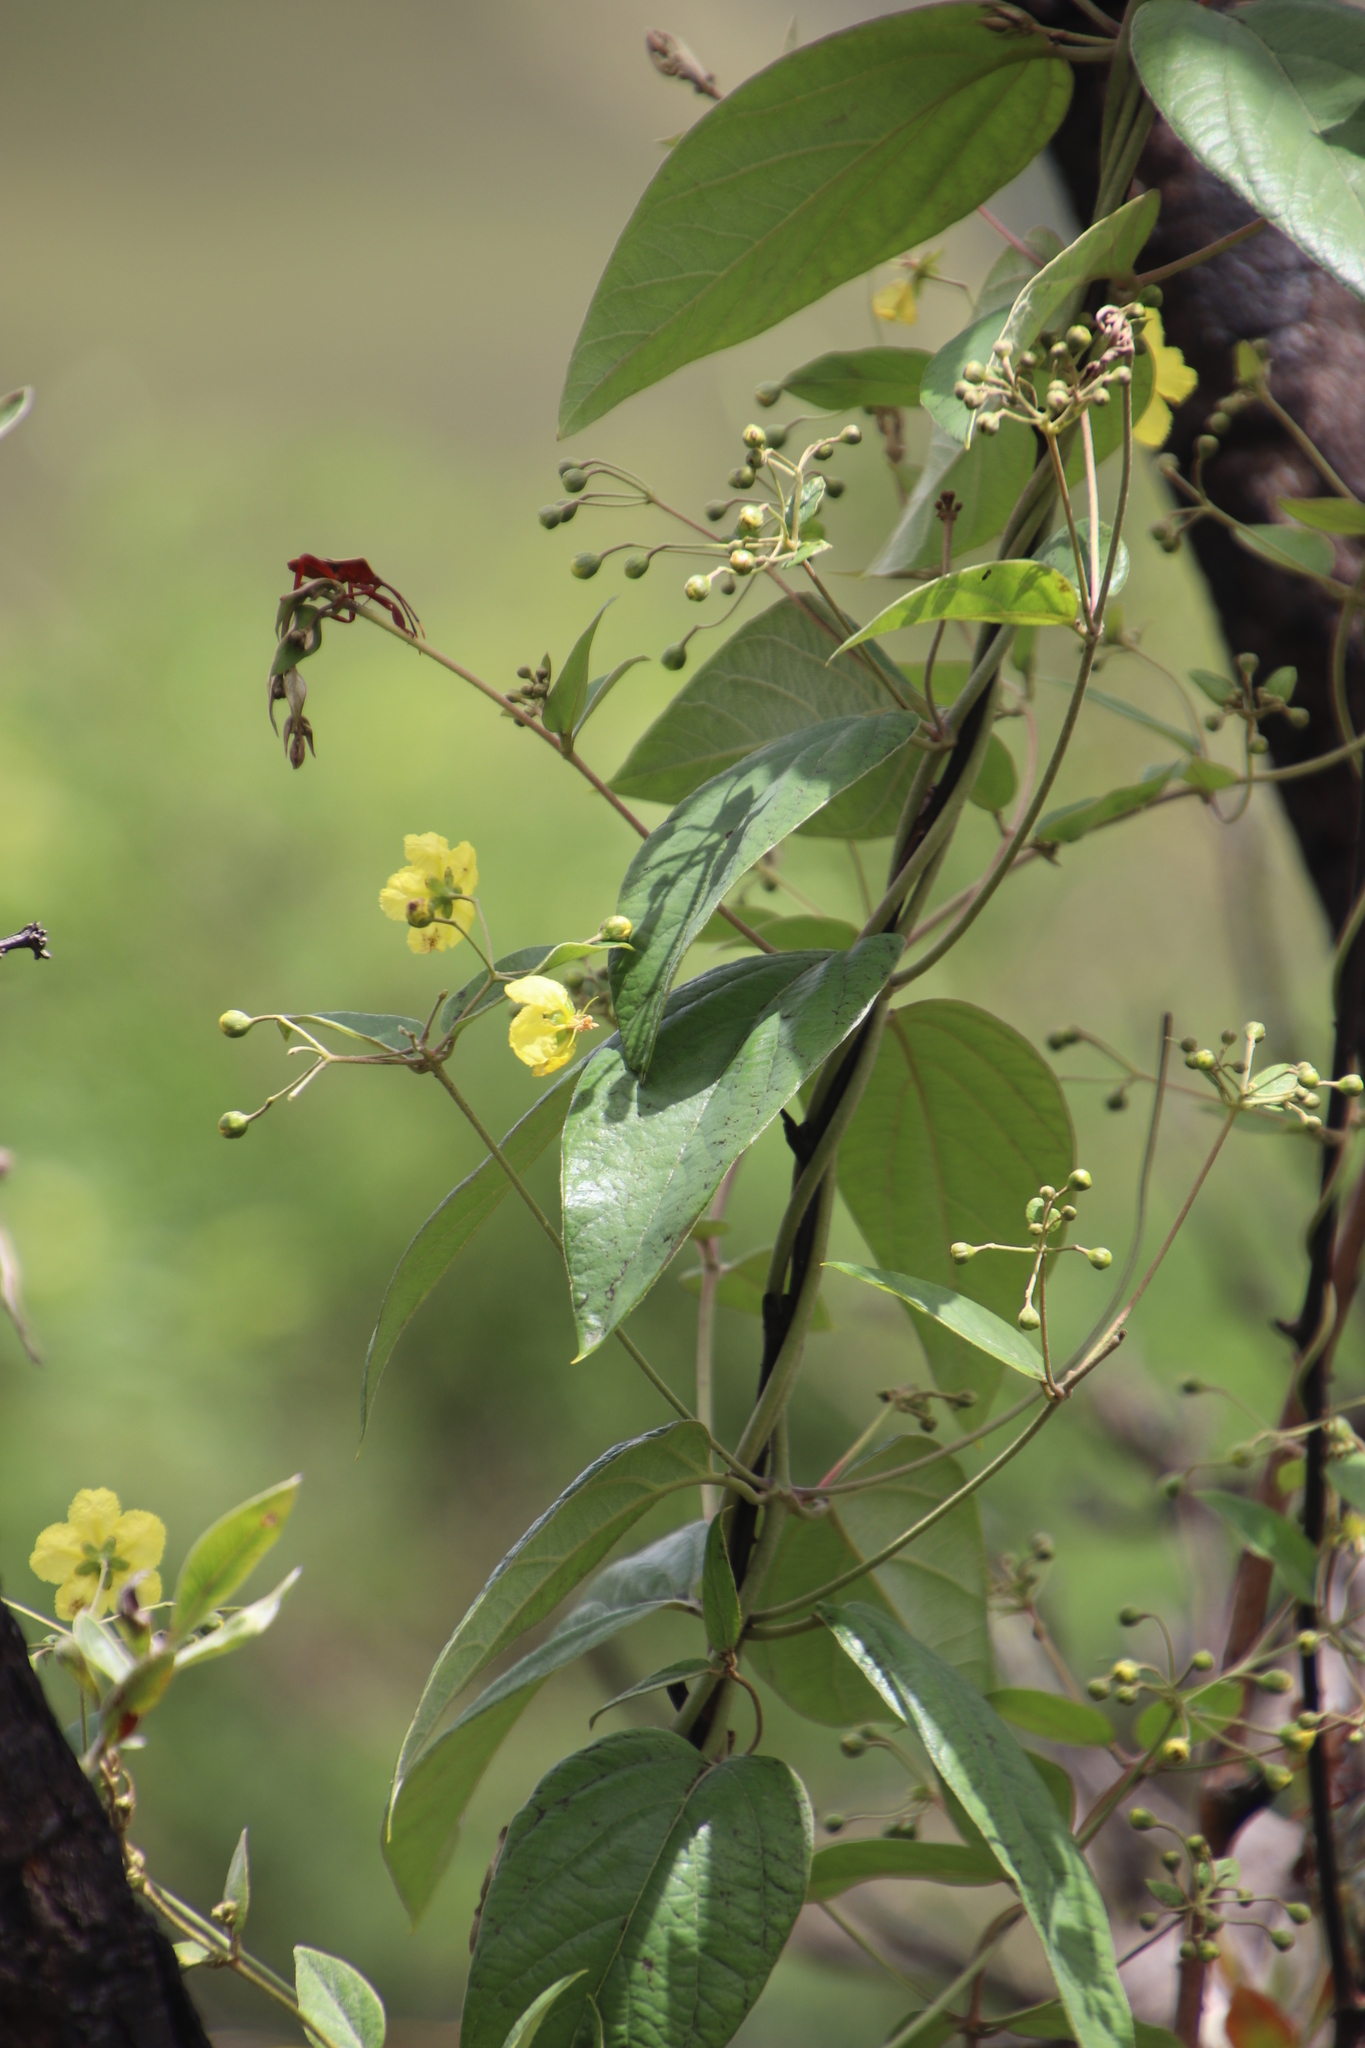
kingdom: Plantae
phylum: Tracheophyta
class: Magnoliopsida
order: Malpighiales
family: Malpighiaceae
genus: Sphedamnocarpus
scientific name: Sphedamnocarpus pruriens
